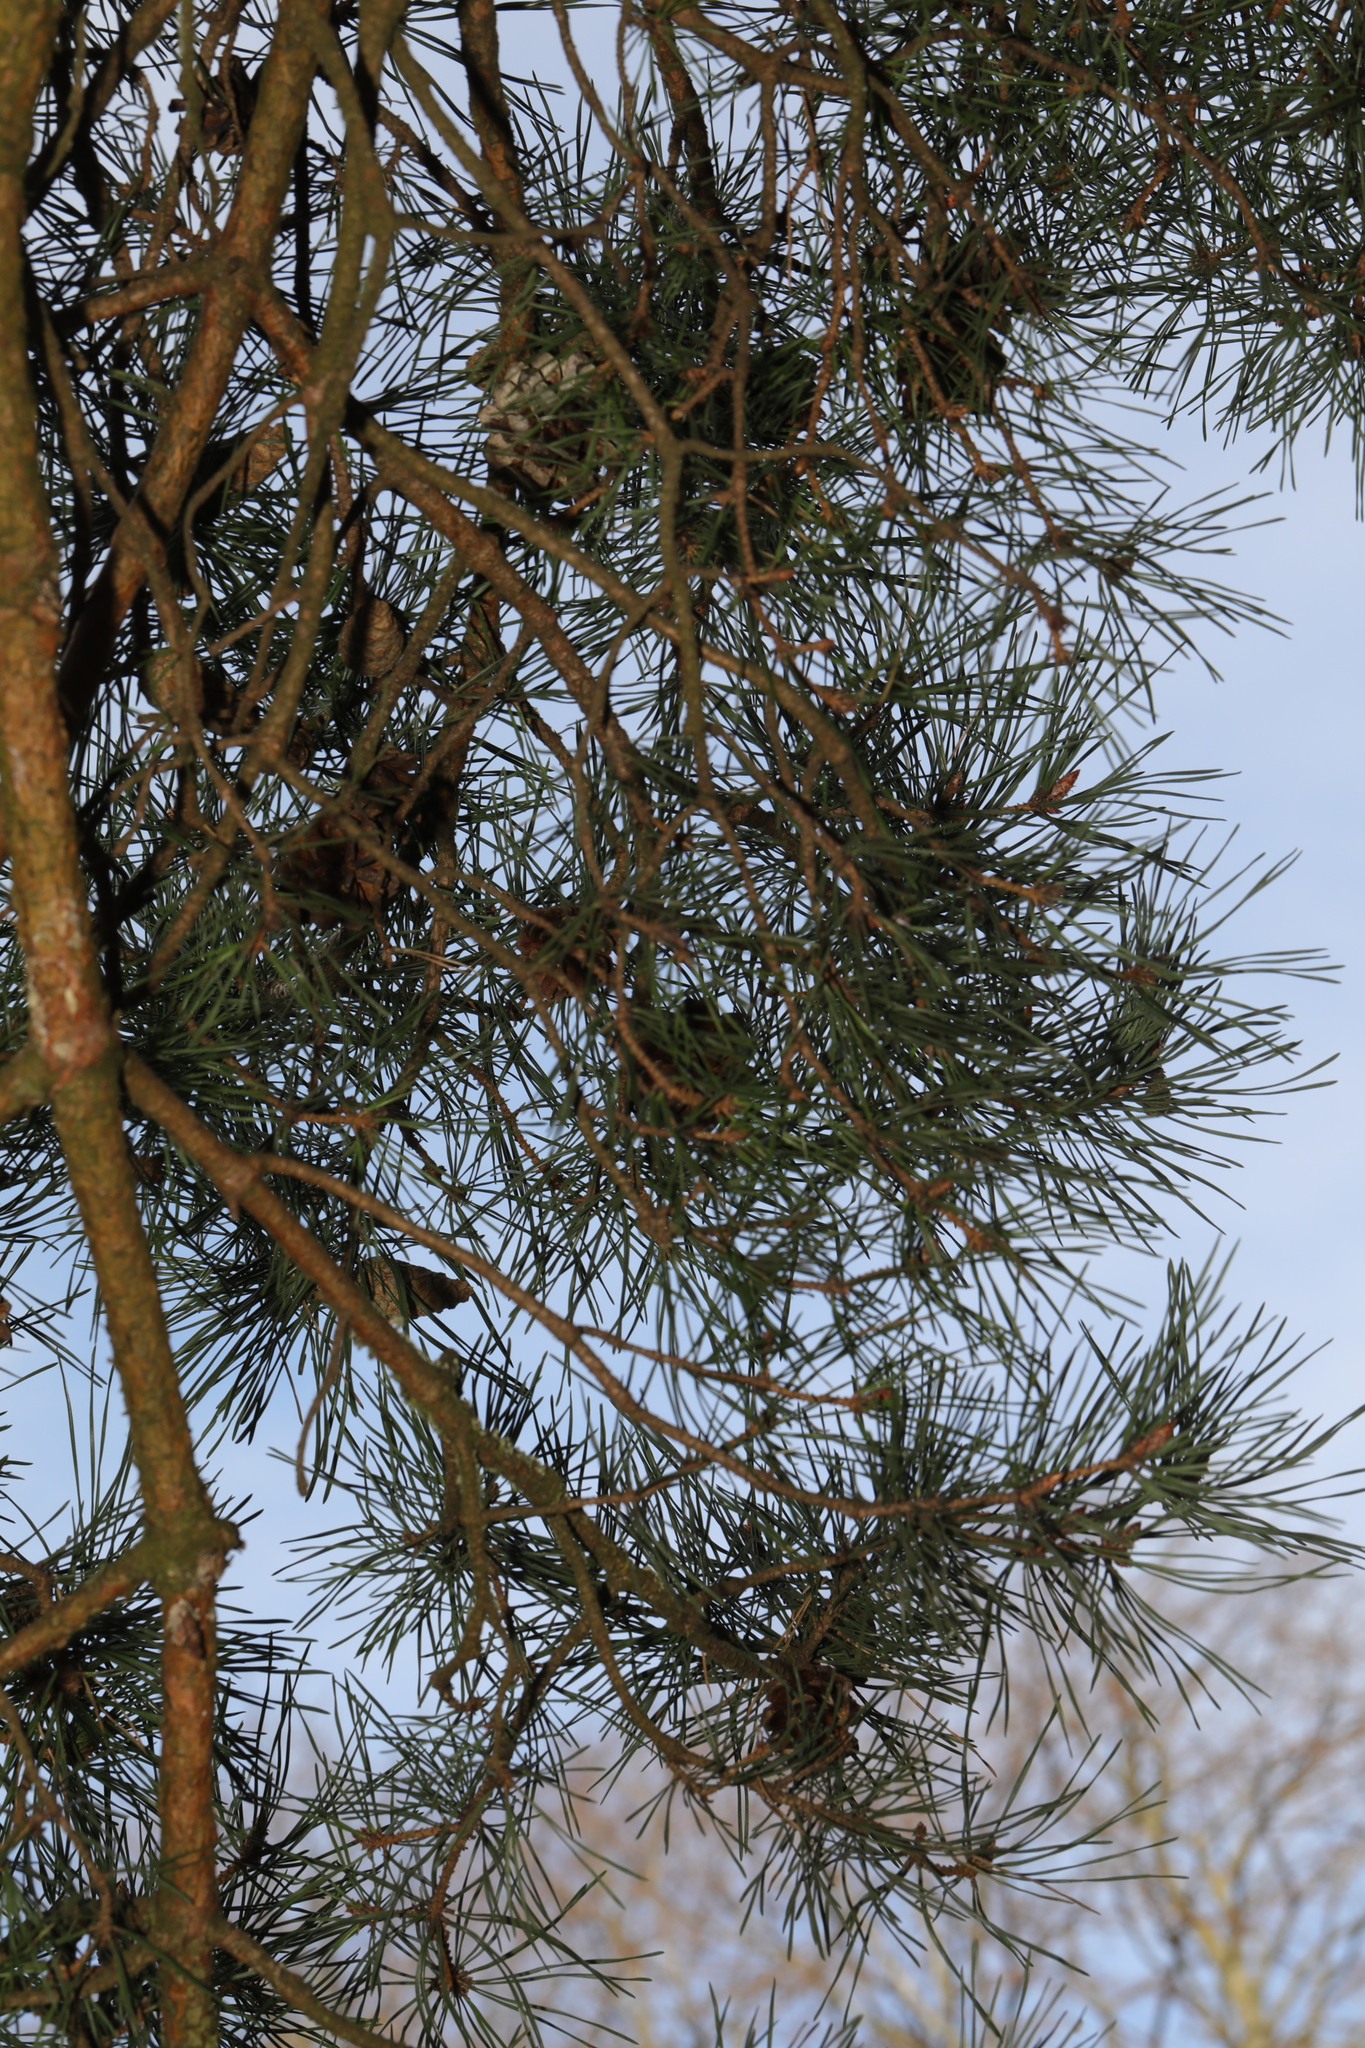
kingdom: Plantae
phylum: Tracheophyta
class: Pinopsida
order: Pinales
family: Pinaceae
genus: Pinus
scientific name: Pinus sylvestris
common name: Scots pine
